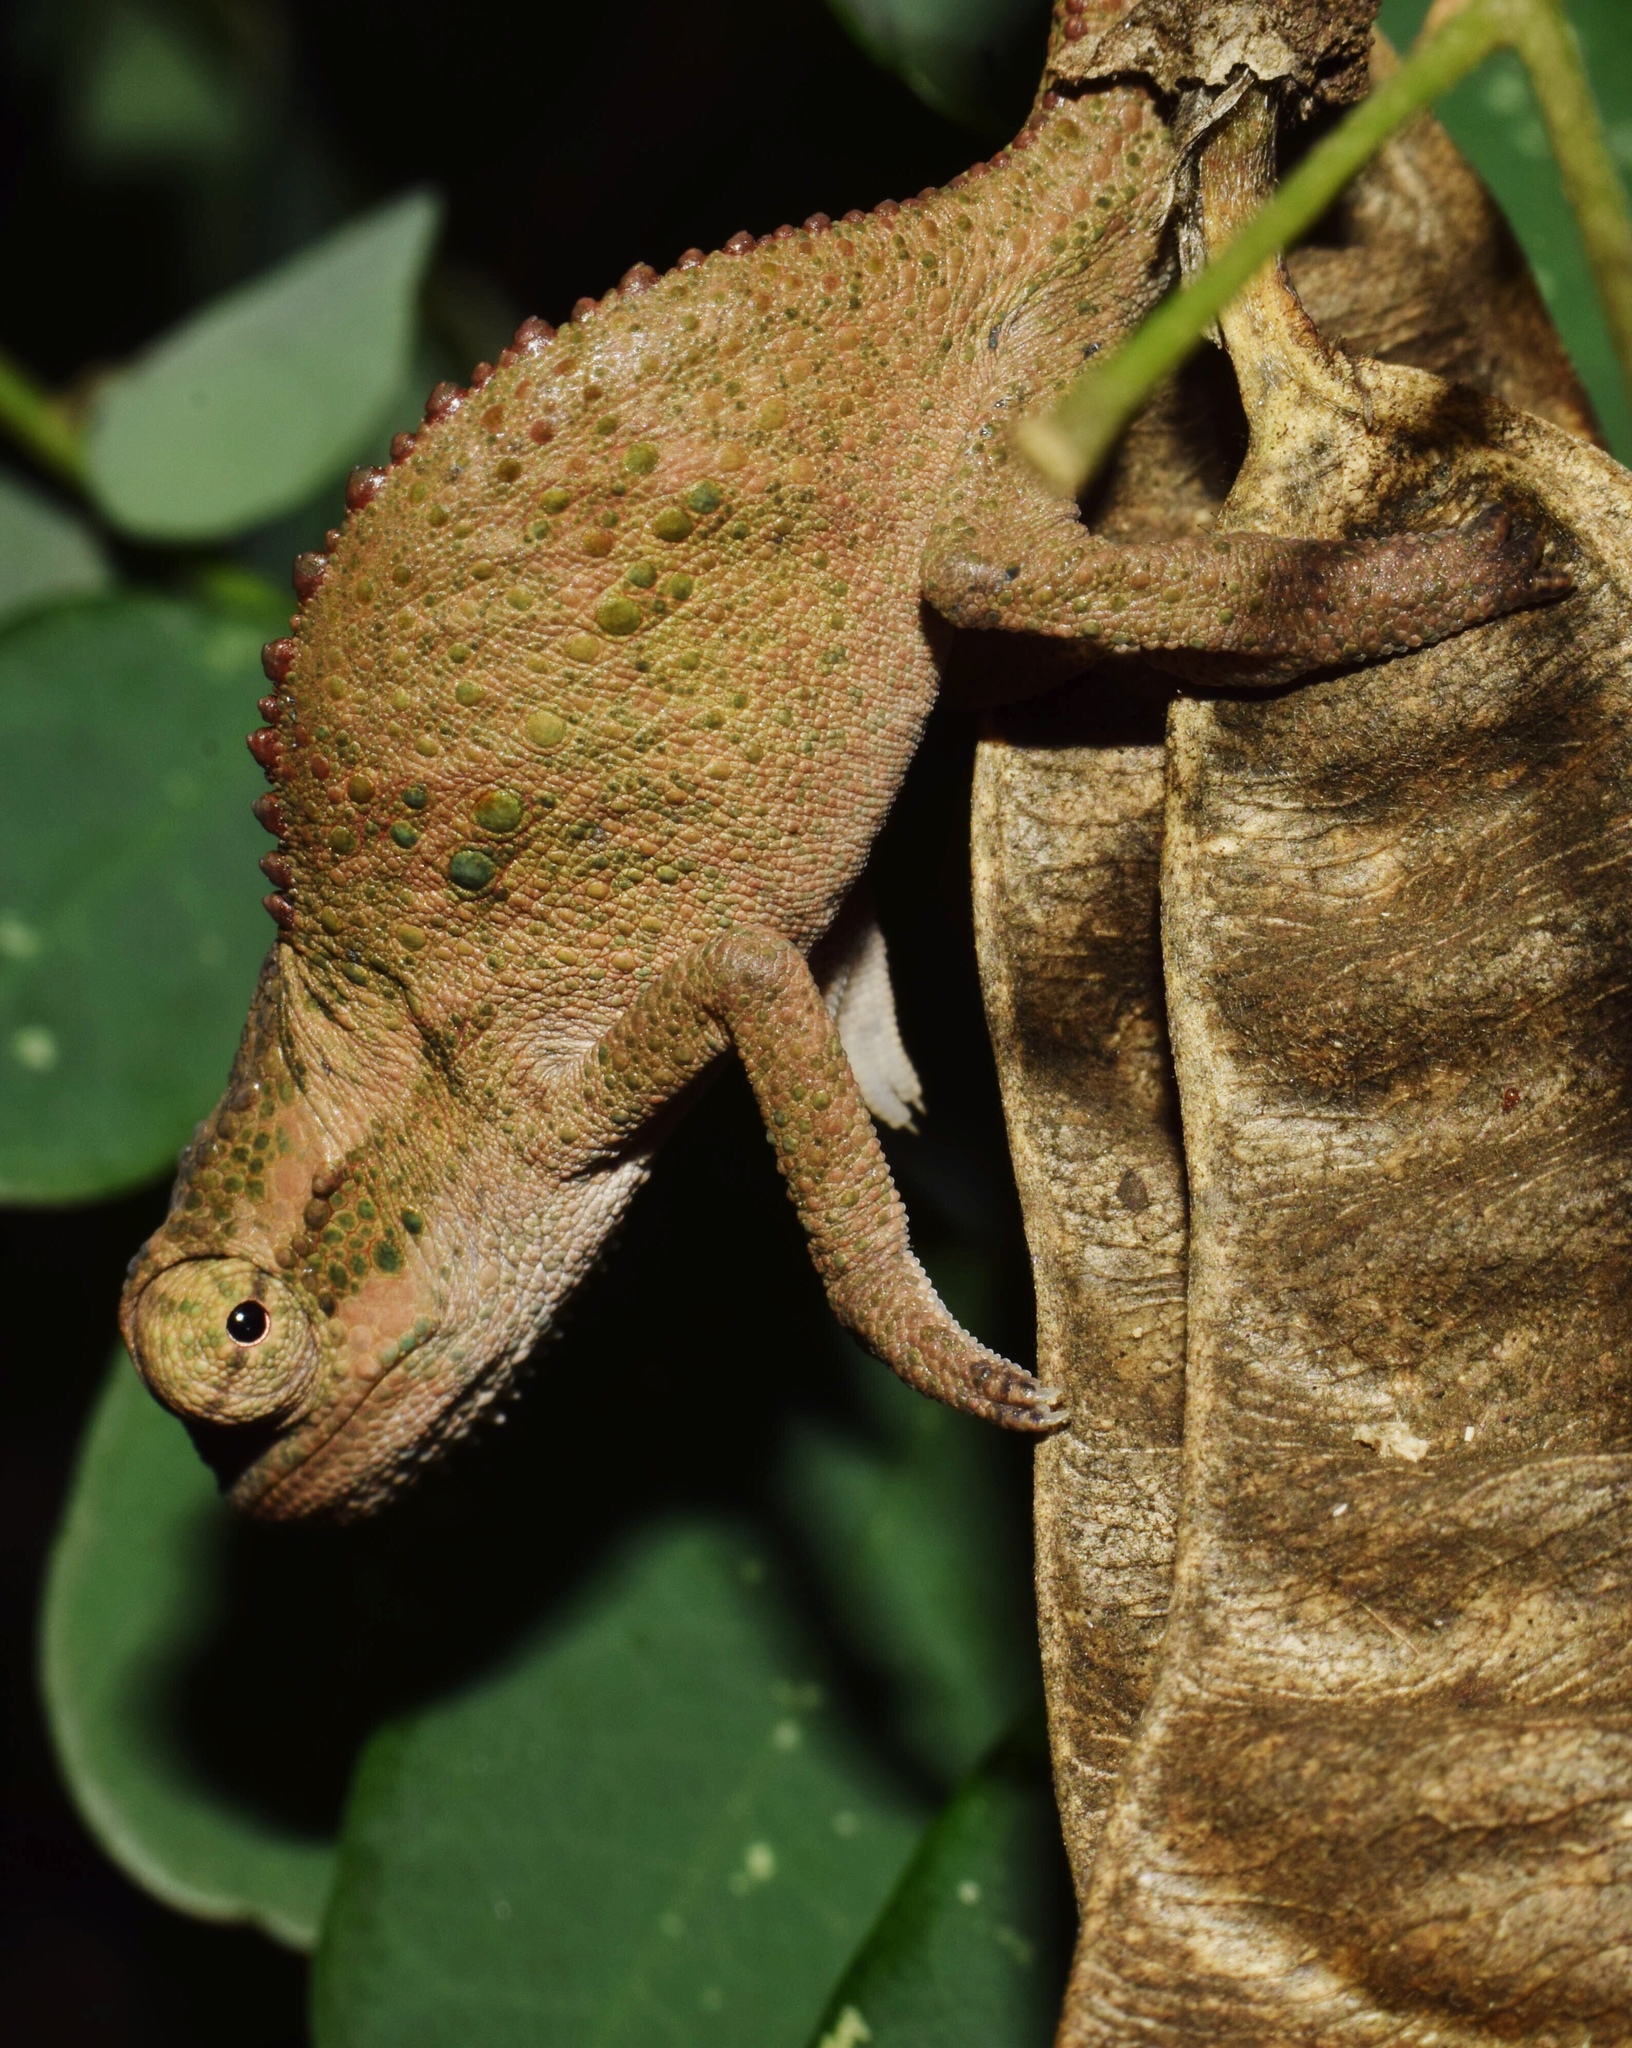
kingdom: Animalia
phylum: Chordata
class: Squamata
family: Chamaeleonidae
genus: Bradypodion
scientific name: Bradypodion melanocephalum
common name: Black-headed dwarf chameleon
